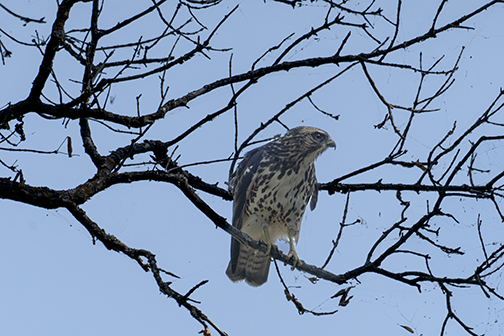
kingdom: Animalia
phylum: Chordata
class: Aves
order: Accipitriformes
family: Accipitridae
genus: Buteo
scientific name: Buteo jamaicensis
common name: Red-tailed hawk
